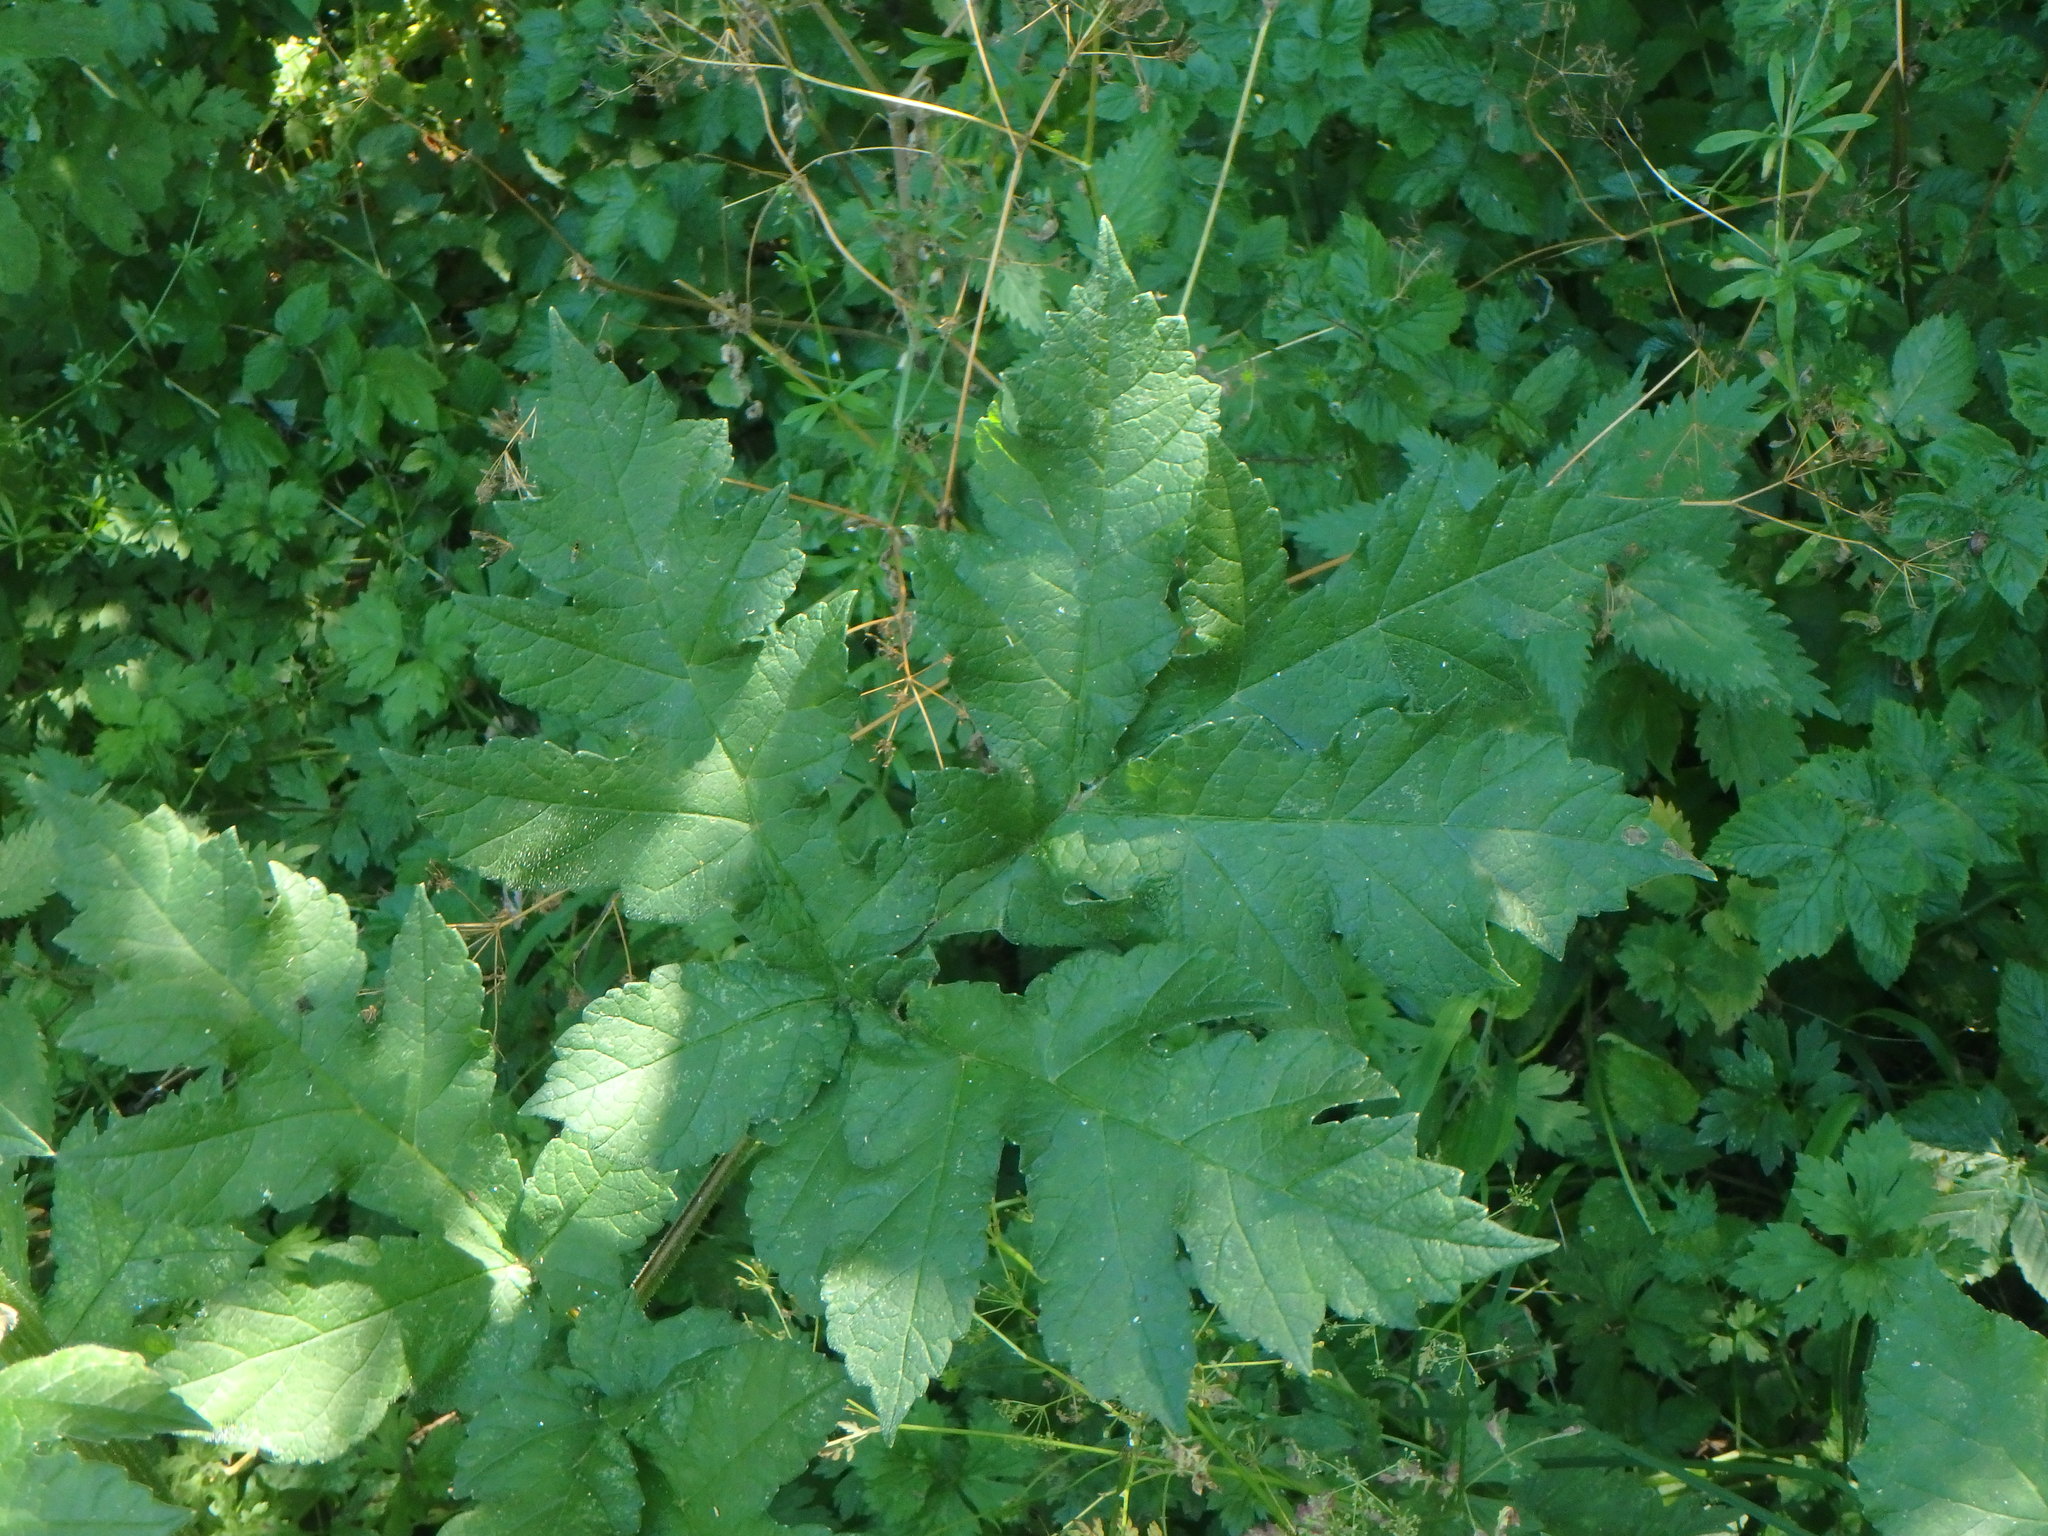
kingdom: Plantae
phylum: Tracheophyta
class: Magnoliopsida
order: Apiales
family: Apiaceae
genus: Heracleum
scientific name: Heracleum sphondylium
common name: Hogweed
